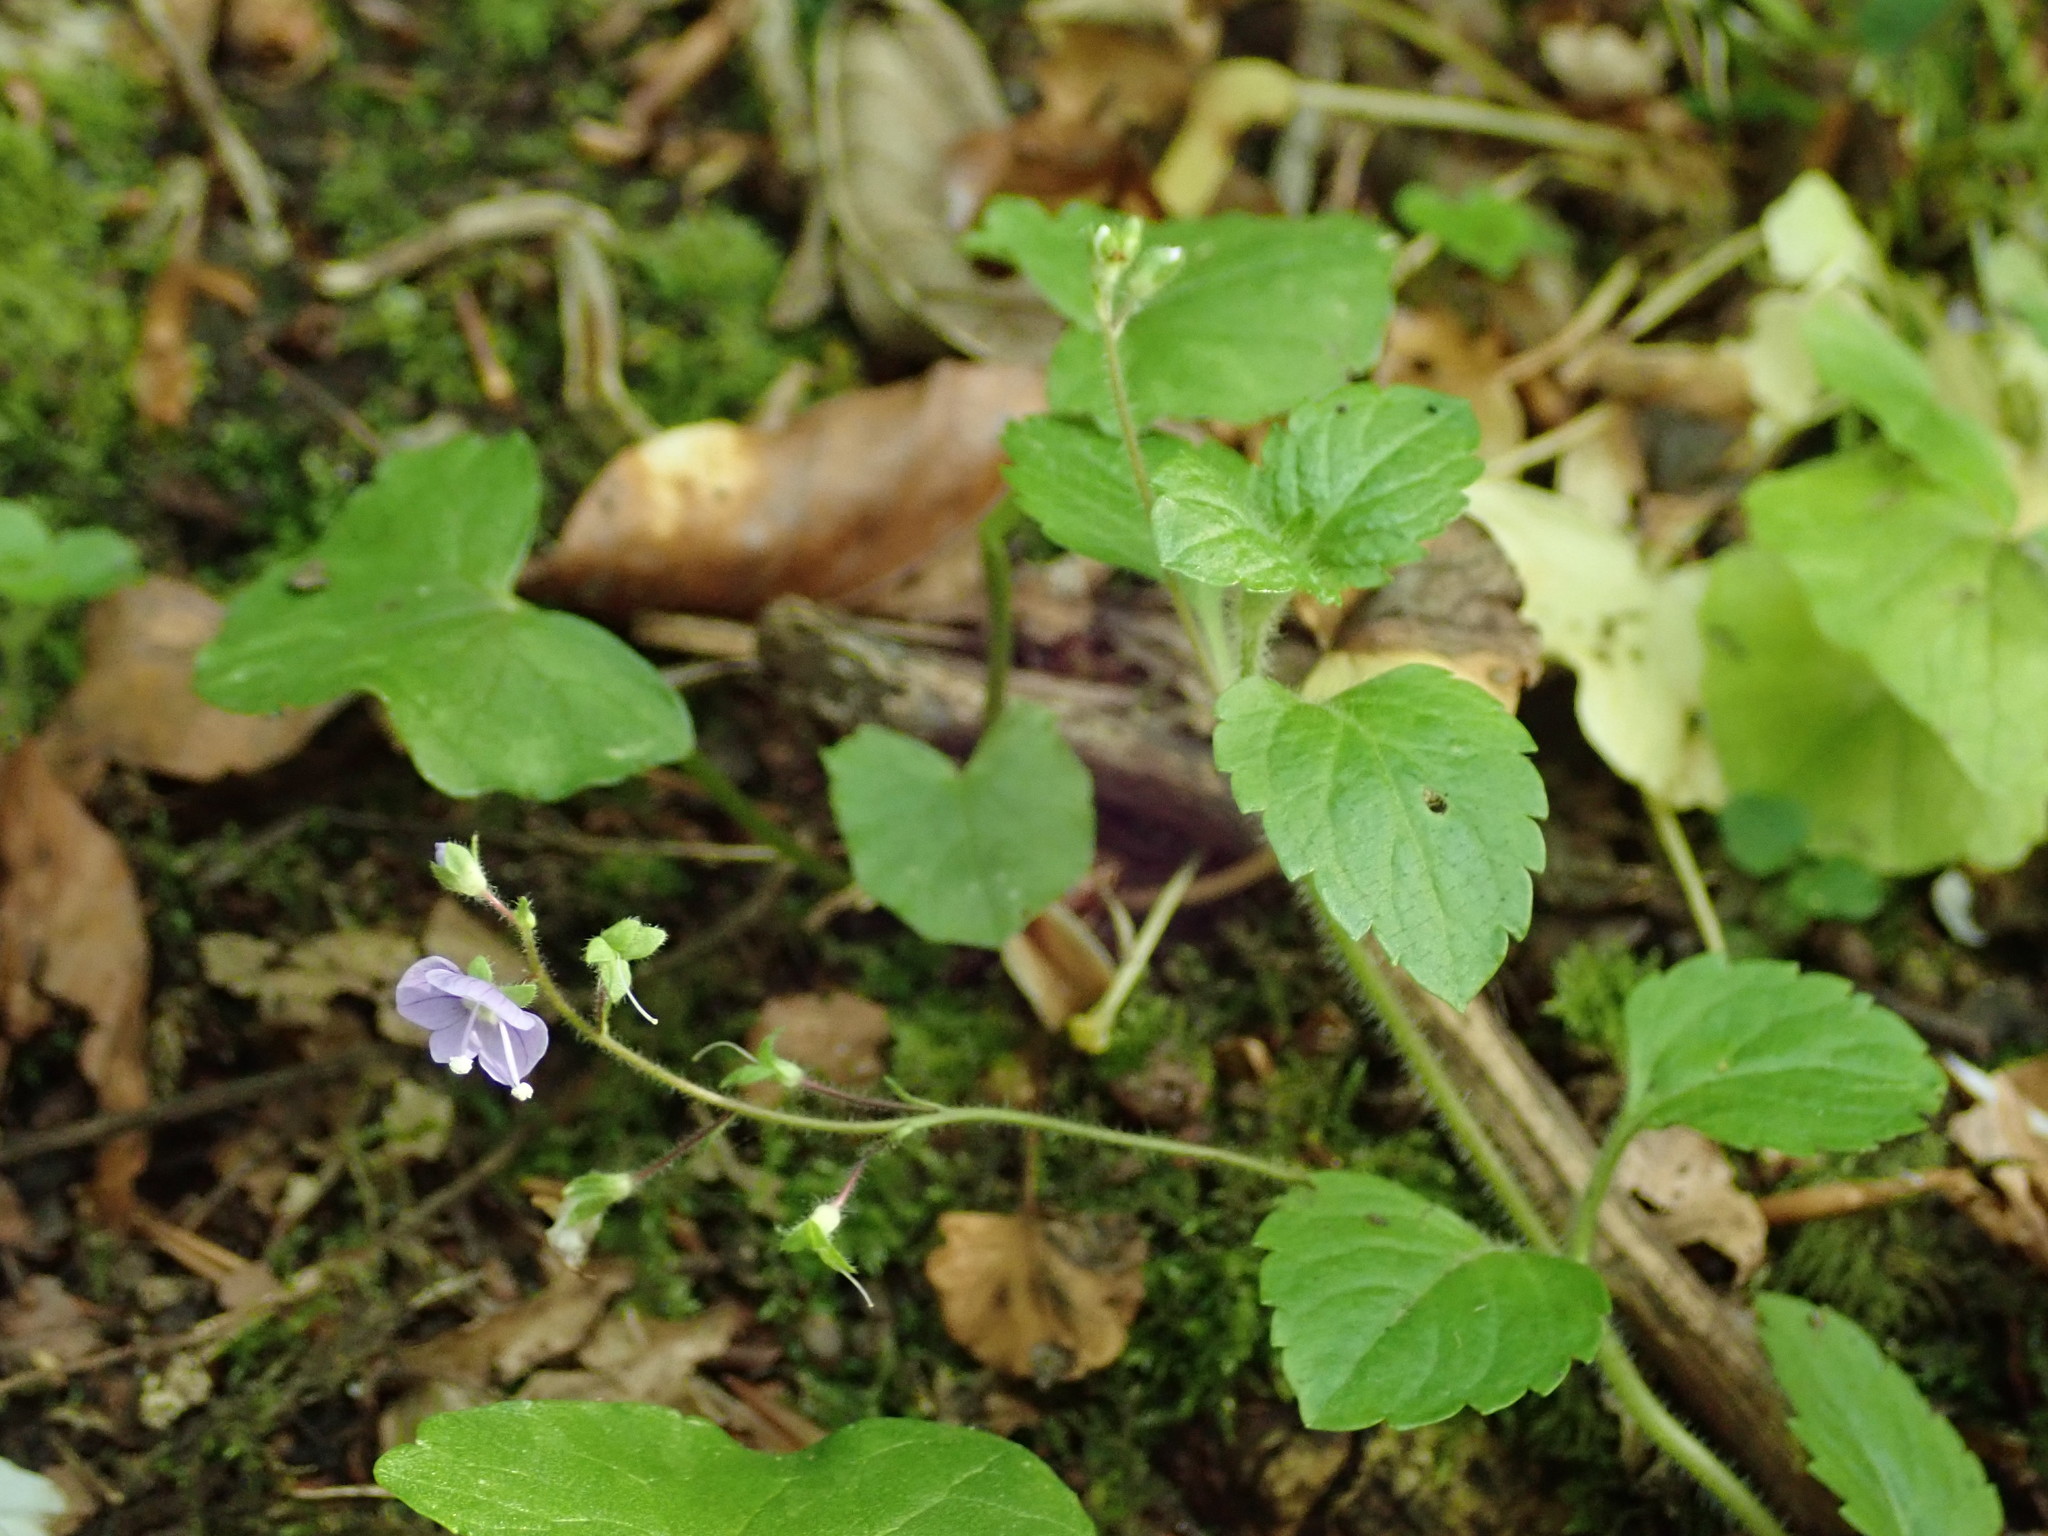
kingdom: Plantae
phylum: Tracheophyta
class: Magnoliopsida
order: Lamiales
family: Plantaginaceae
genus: Veronica
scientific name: Veronica montana
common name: Wood speedwell
